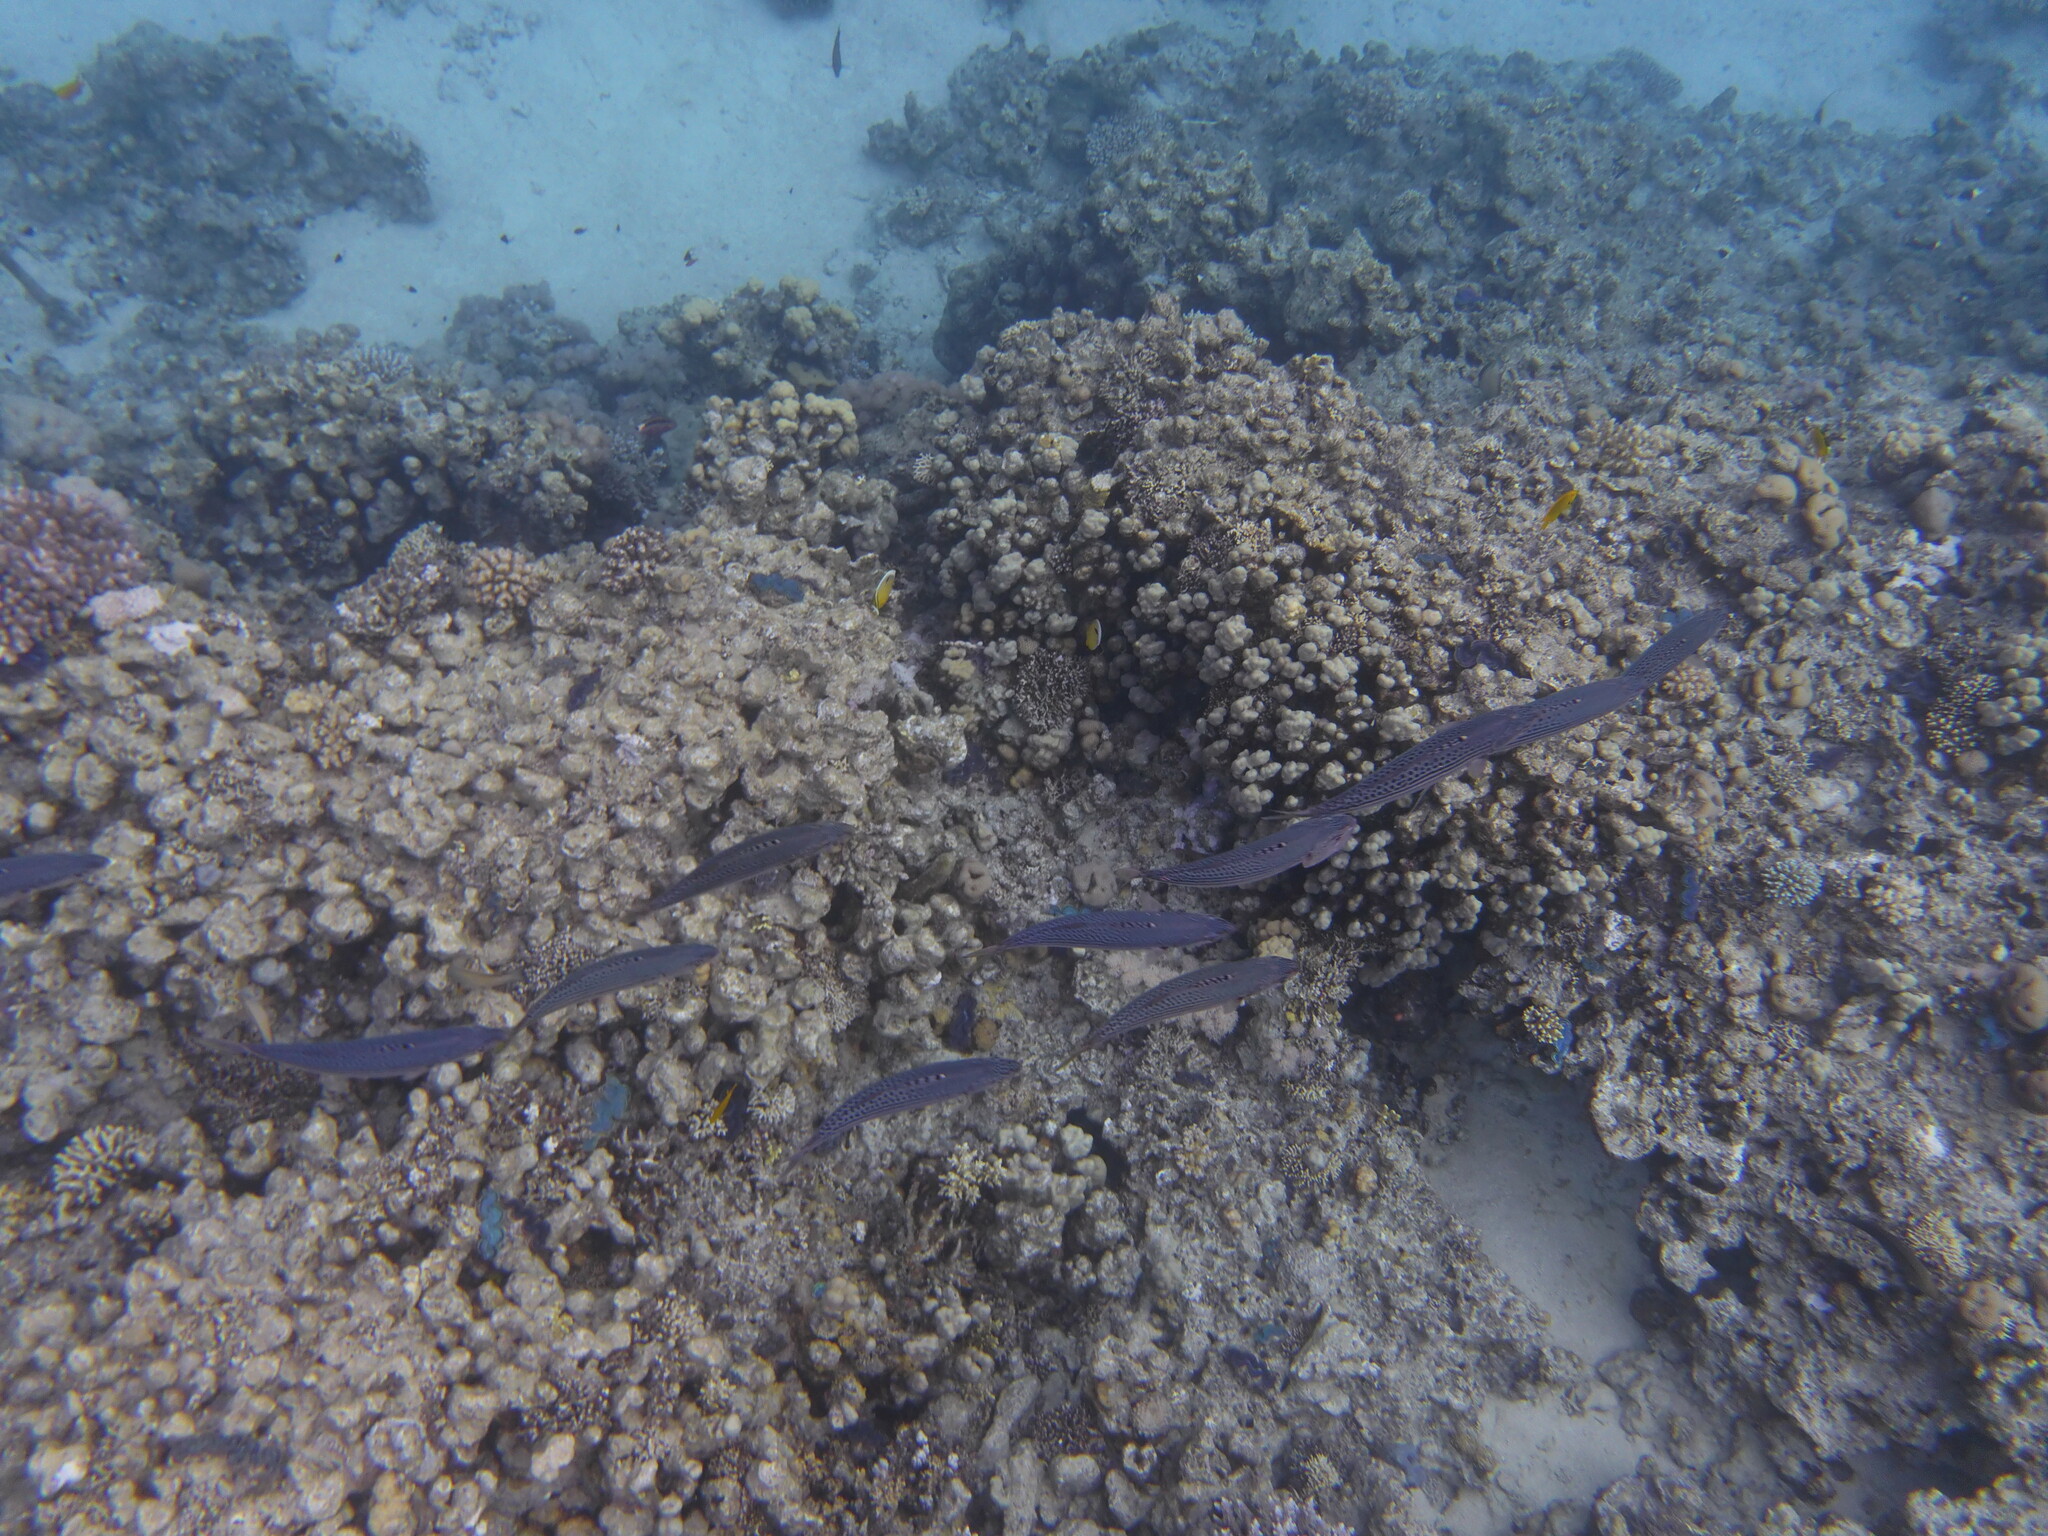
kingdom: Animalia
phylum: Chordata
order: Perciformes
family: Scombridae
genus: Rastrelliger
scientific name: Rastrelliger kanagurta
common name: Indian mackerel
